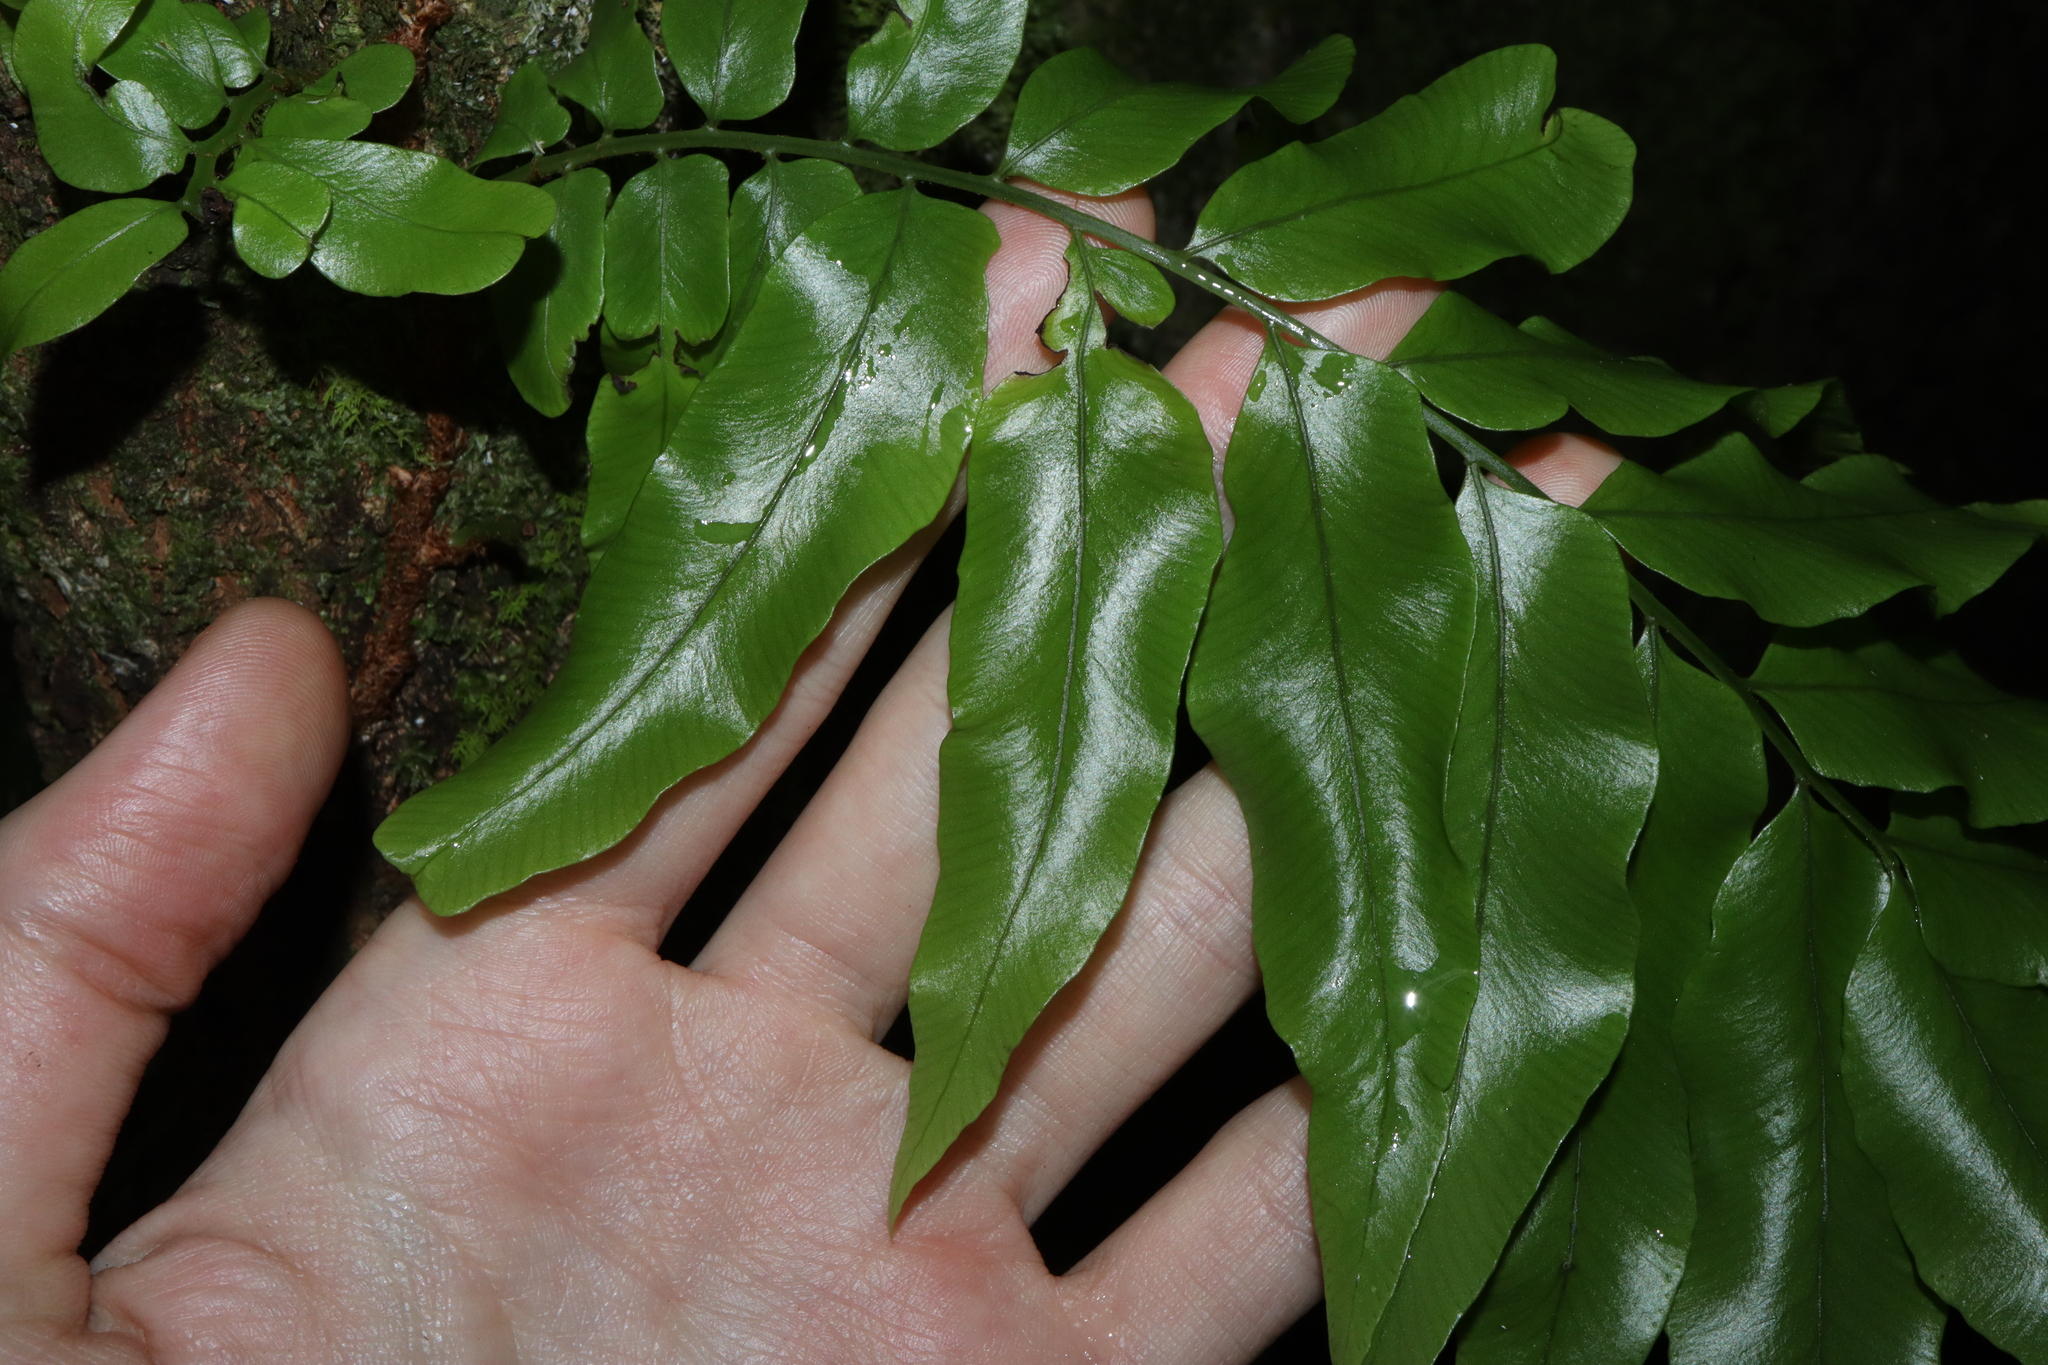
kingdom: Plantae
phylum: Tracheophyta
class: Polypodiopsida
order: Polypodiales
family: Tectariaceae
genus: Arthropteris
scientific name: Arthropteris tenella
